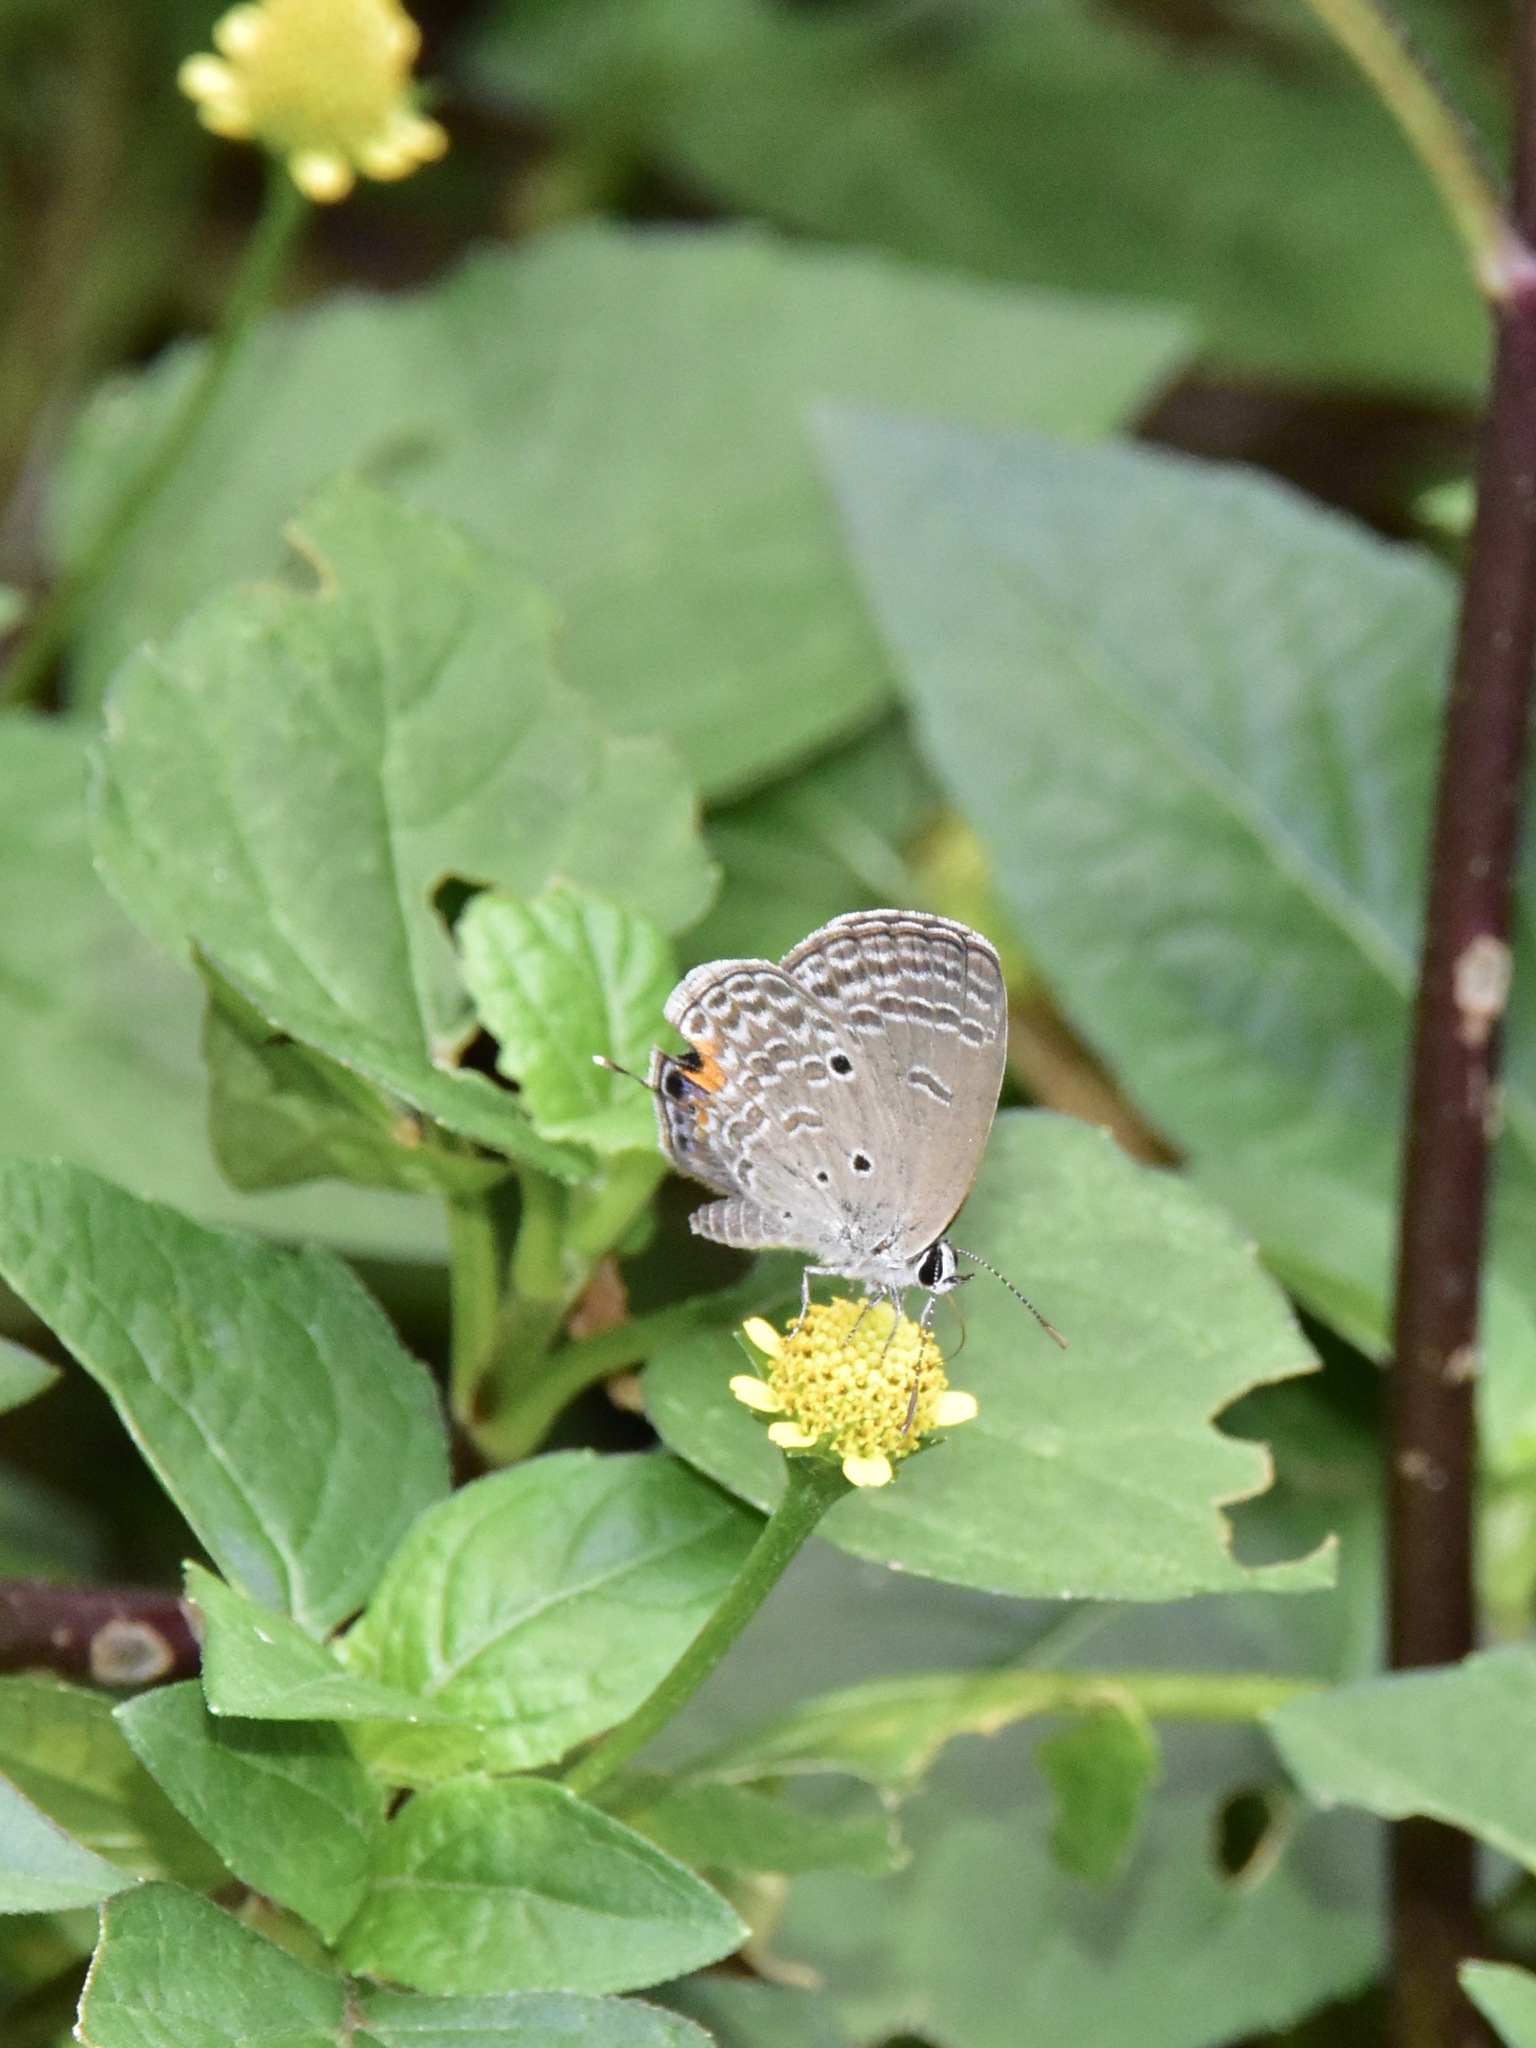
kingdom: Animalia
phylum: Arthropoda
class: Insecta
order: Lepidoptera
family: Lycaenidae
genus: Luthrodes
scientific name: Luthrodes pandava
